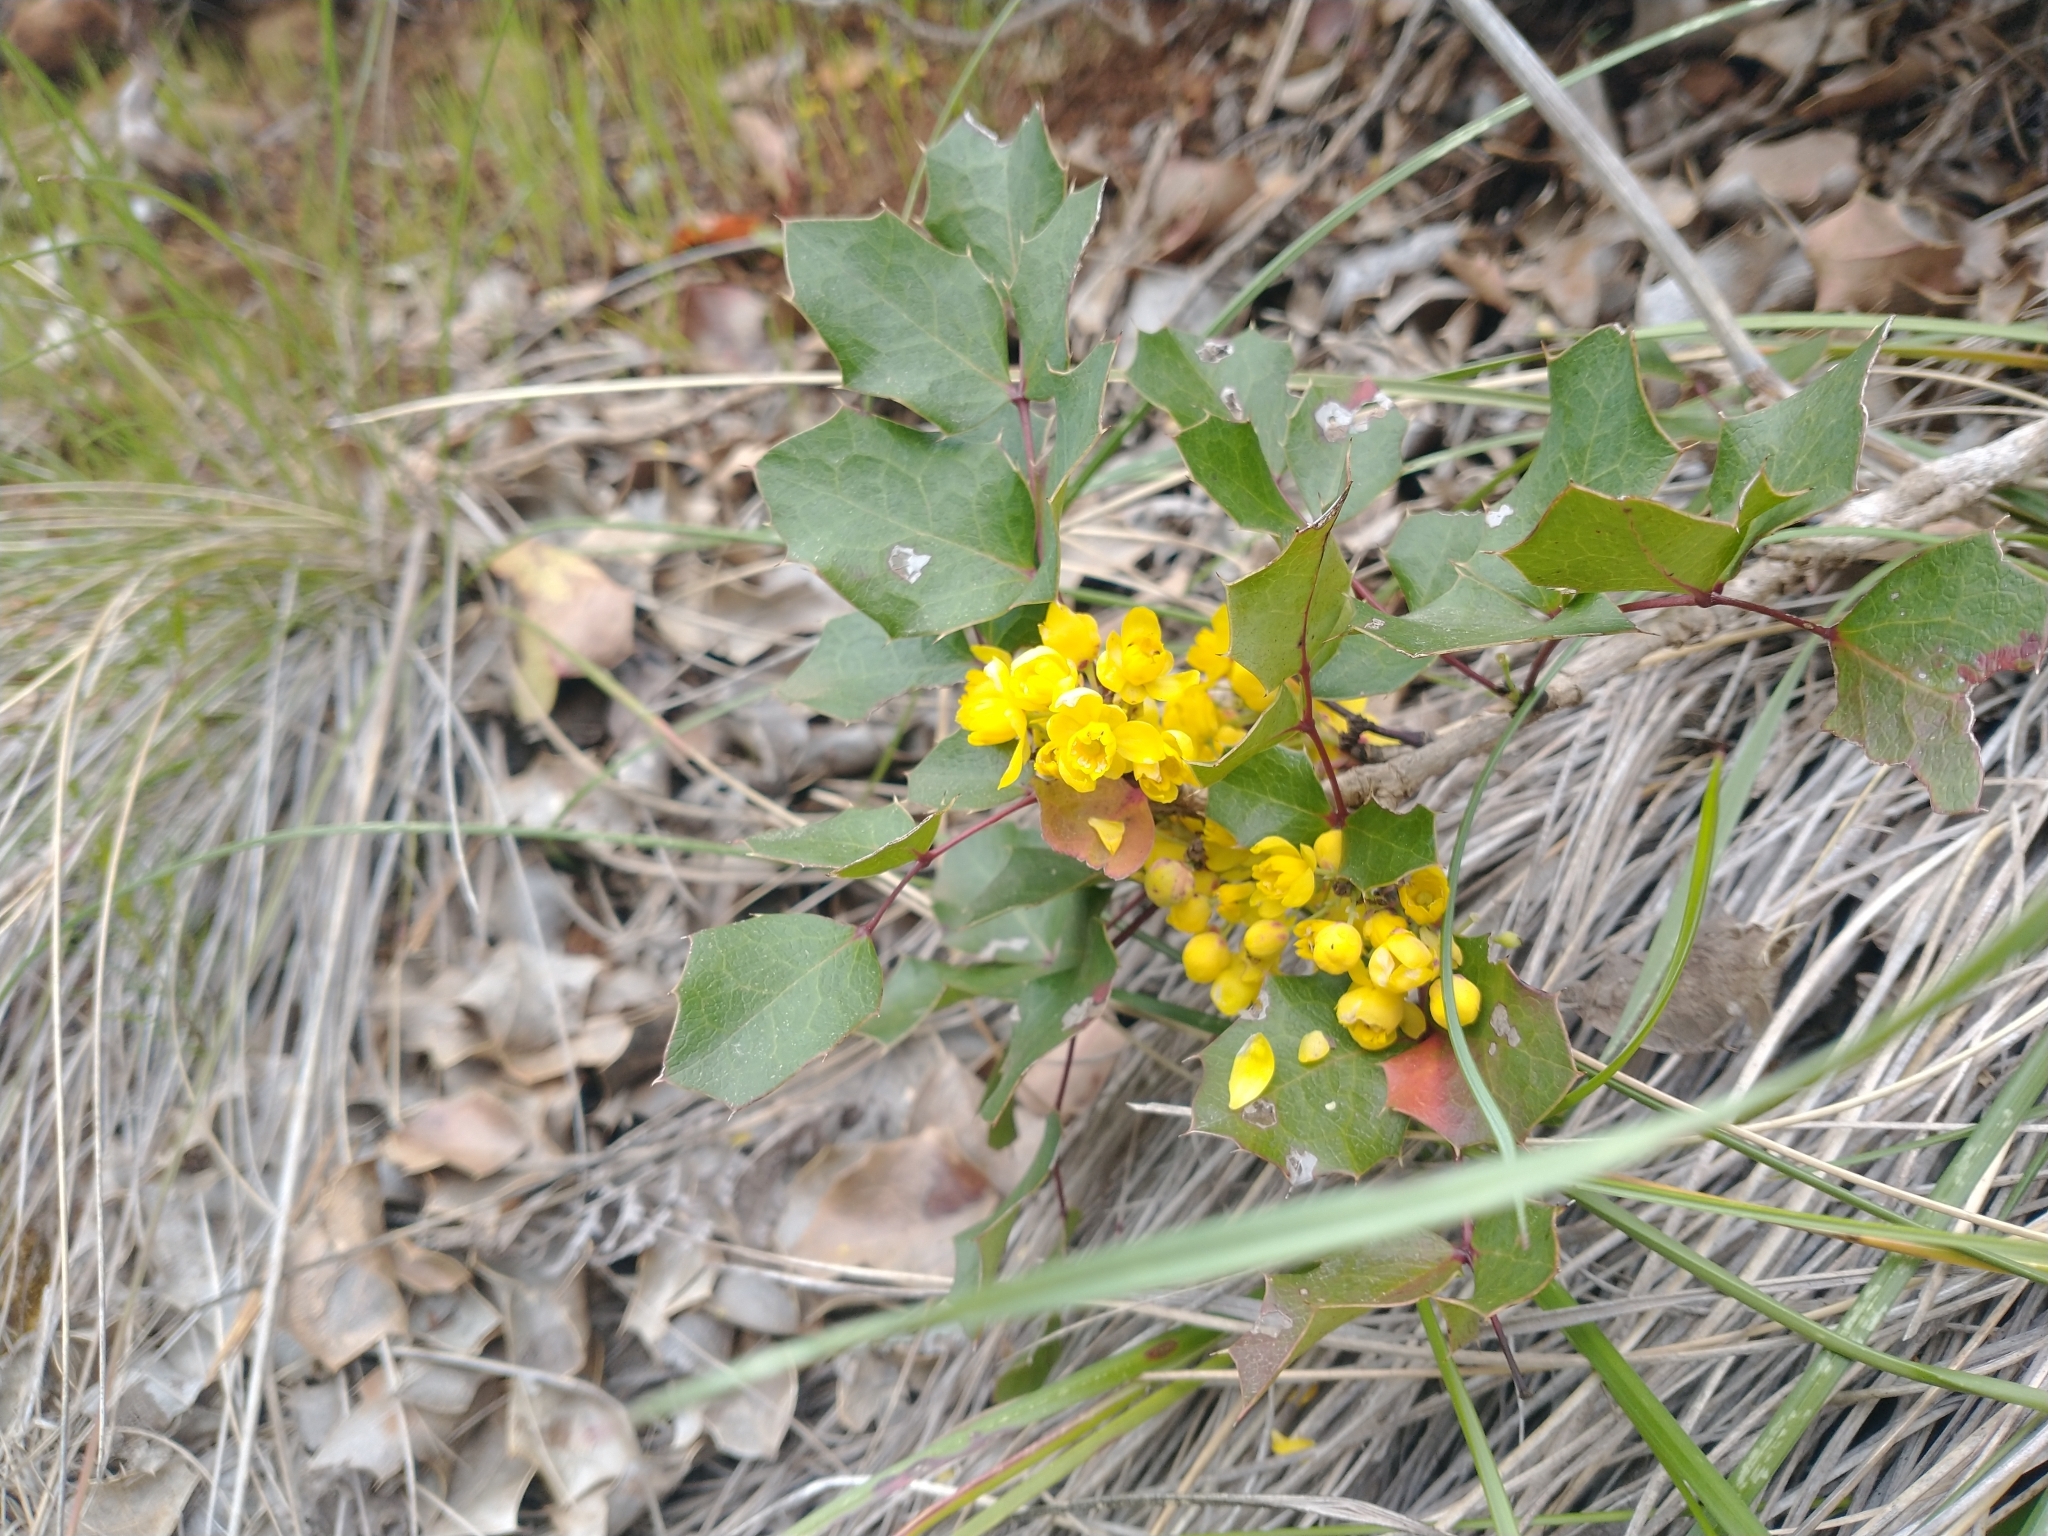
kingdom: Plantae
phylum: Tracheophyta
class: Magnoliopsida
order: Ranunculales
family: Berberidaceae
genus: Mahonia
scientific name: Mahonia repens
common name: Creeping oregon-grape
